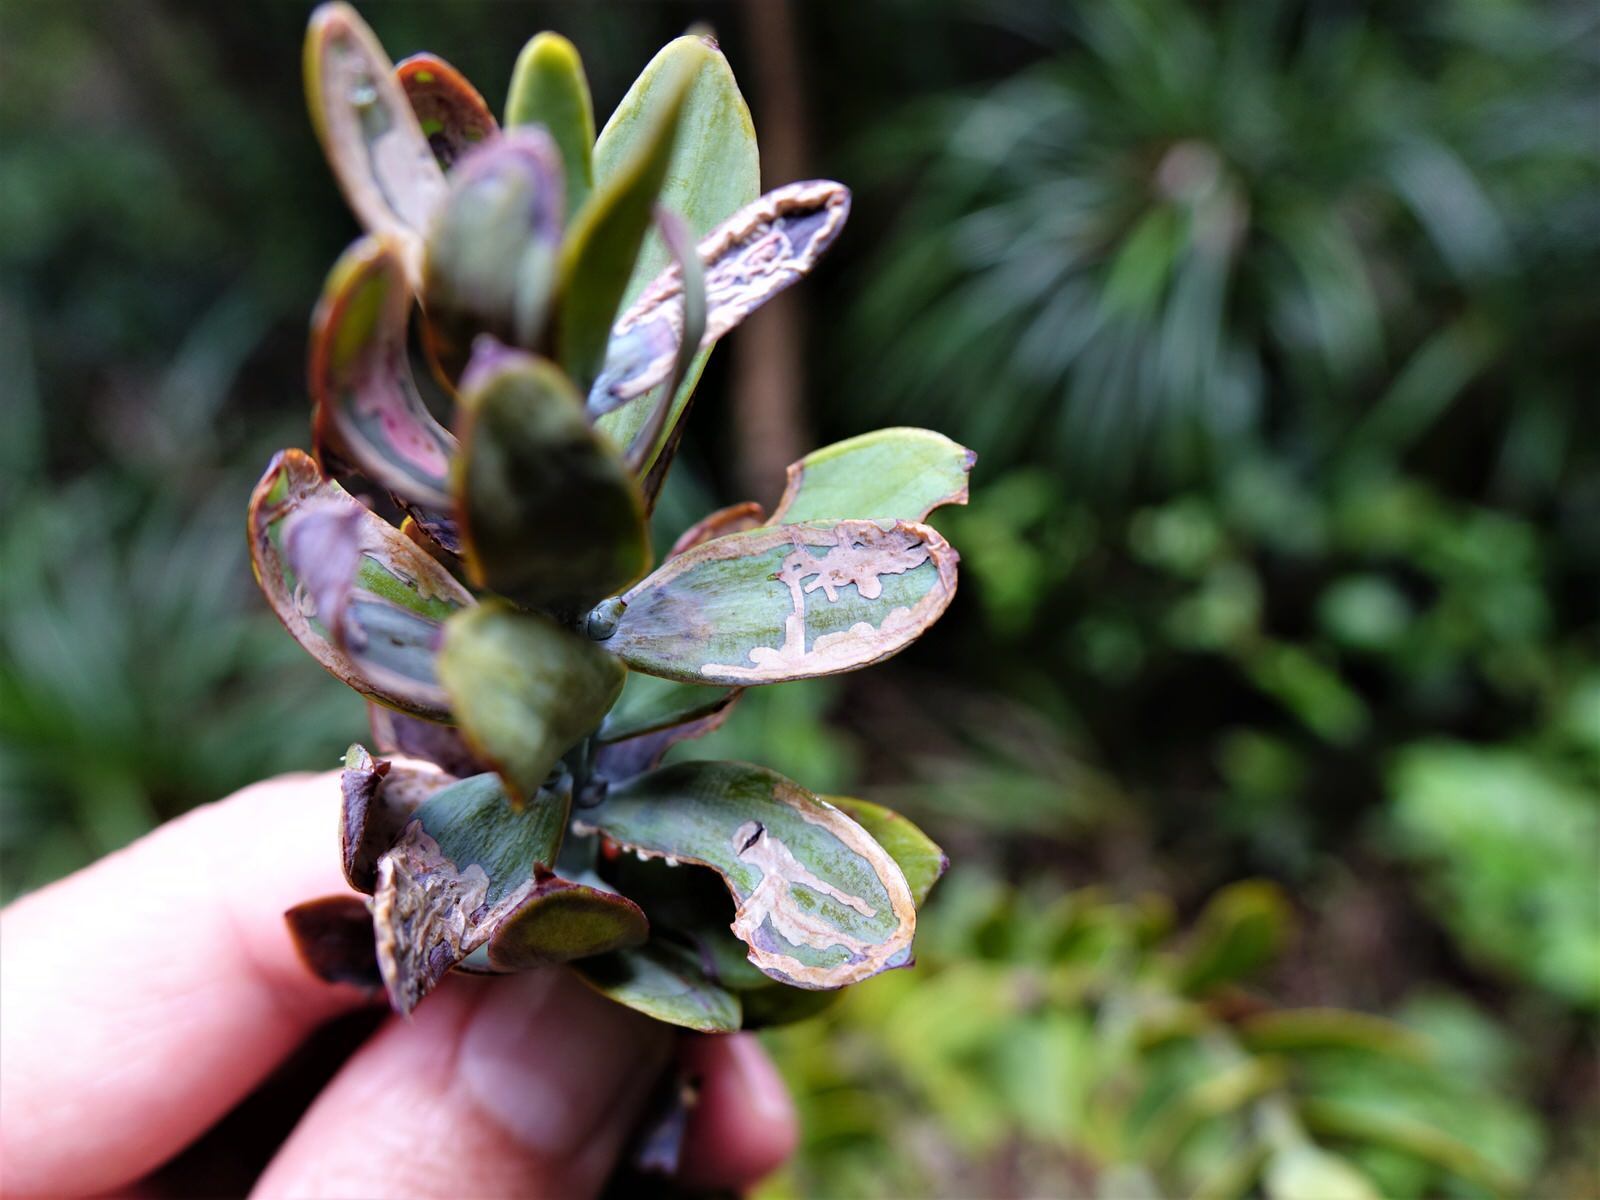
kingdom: Animalia
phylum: Arthropoda
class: Insecta
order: Lepidoptera
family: Gracillariidae
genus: Acrocercops
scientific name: Acrocercops leucotoma
